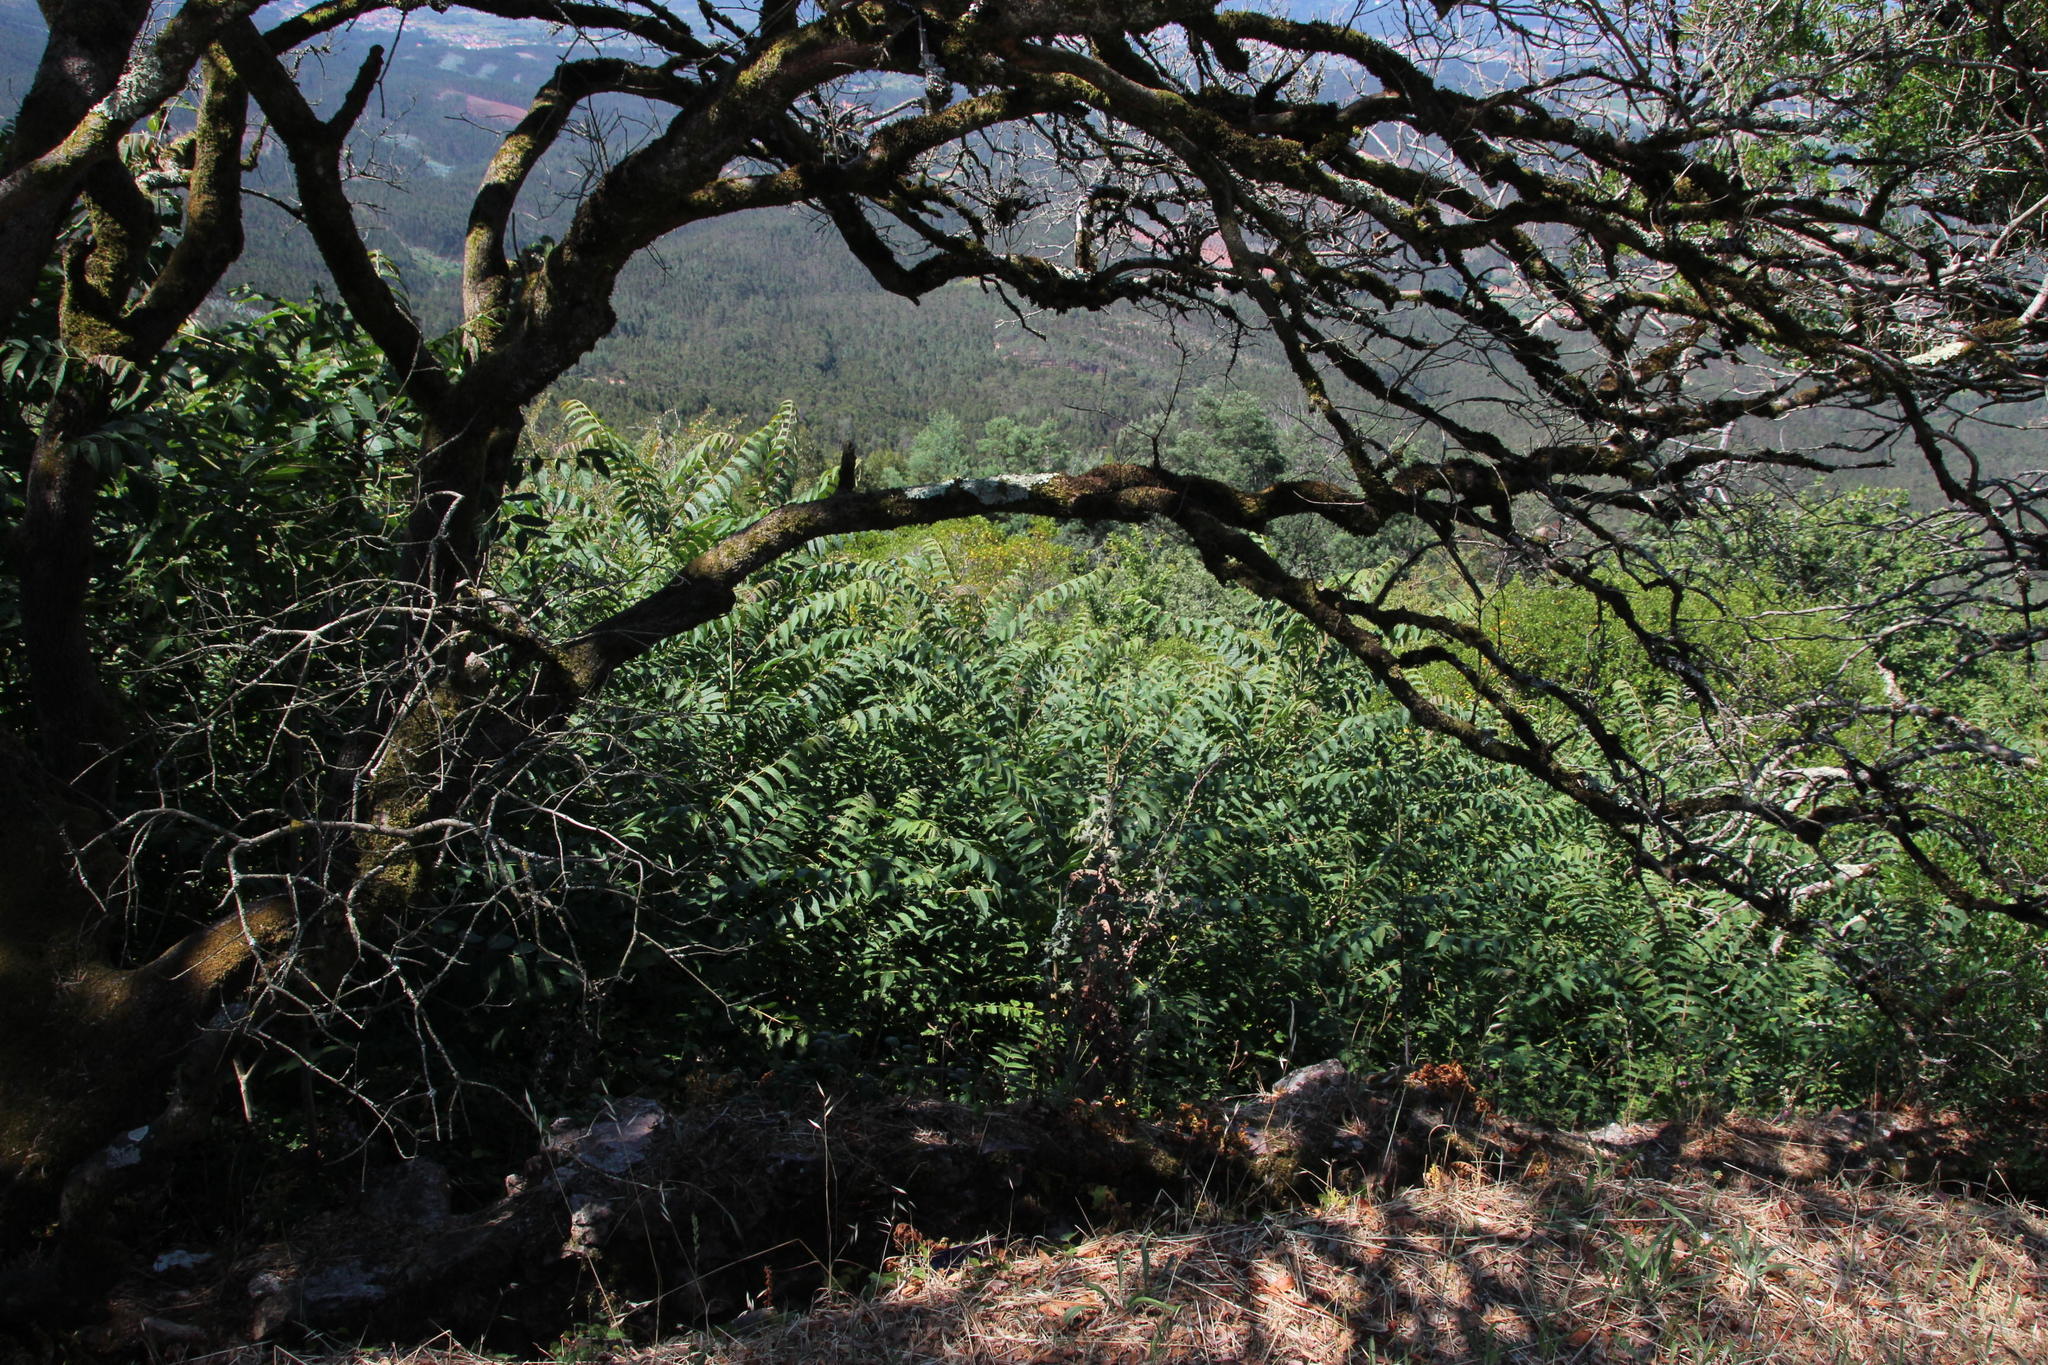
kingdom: Plantae
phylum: Tracheophyta
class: Magnoliopsida
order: Sapindales
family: Simaroubaceae
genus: Ailanthus
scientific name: Ailanthus altissima
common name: Tree-of-heaven
